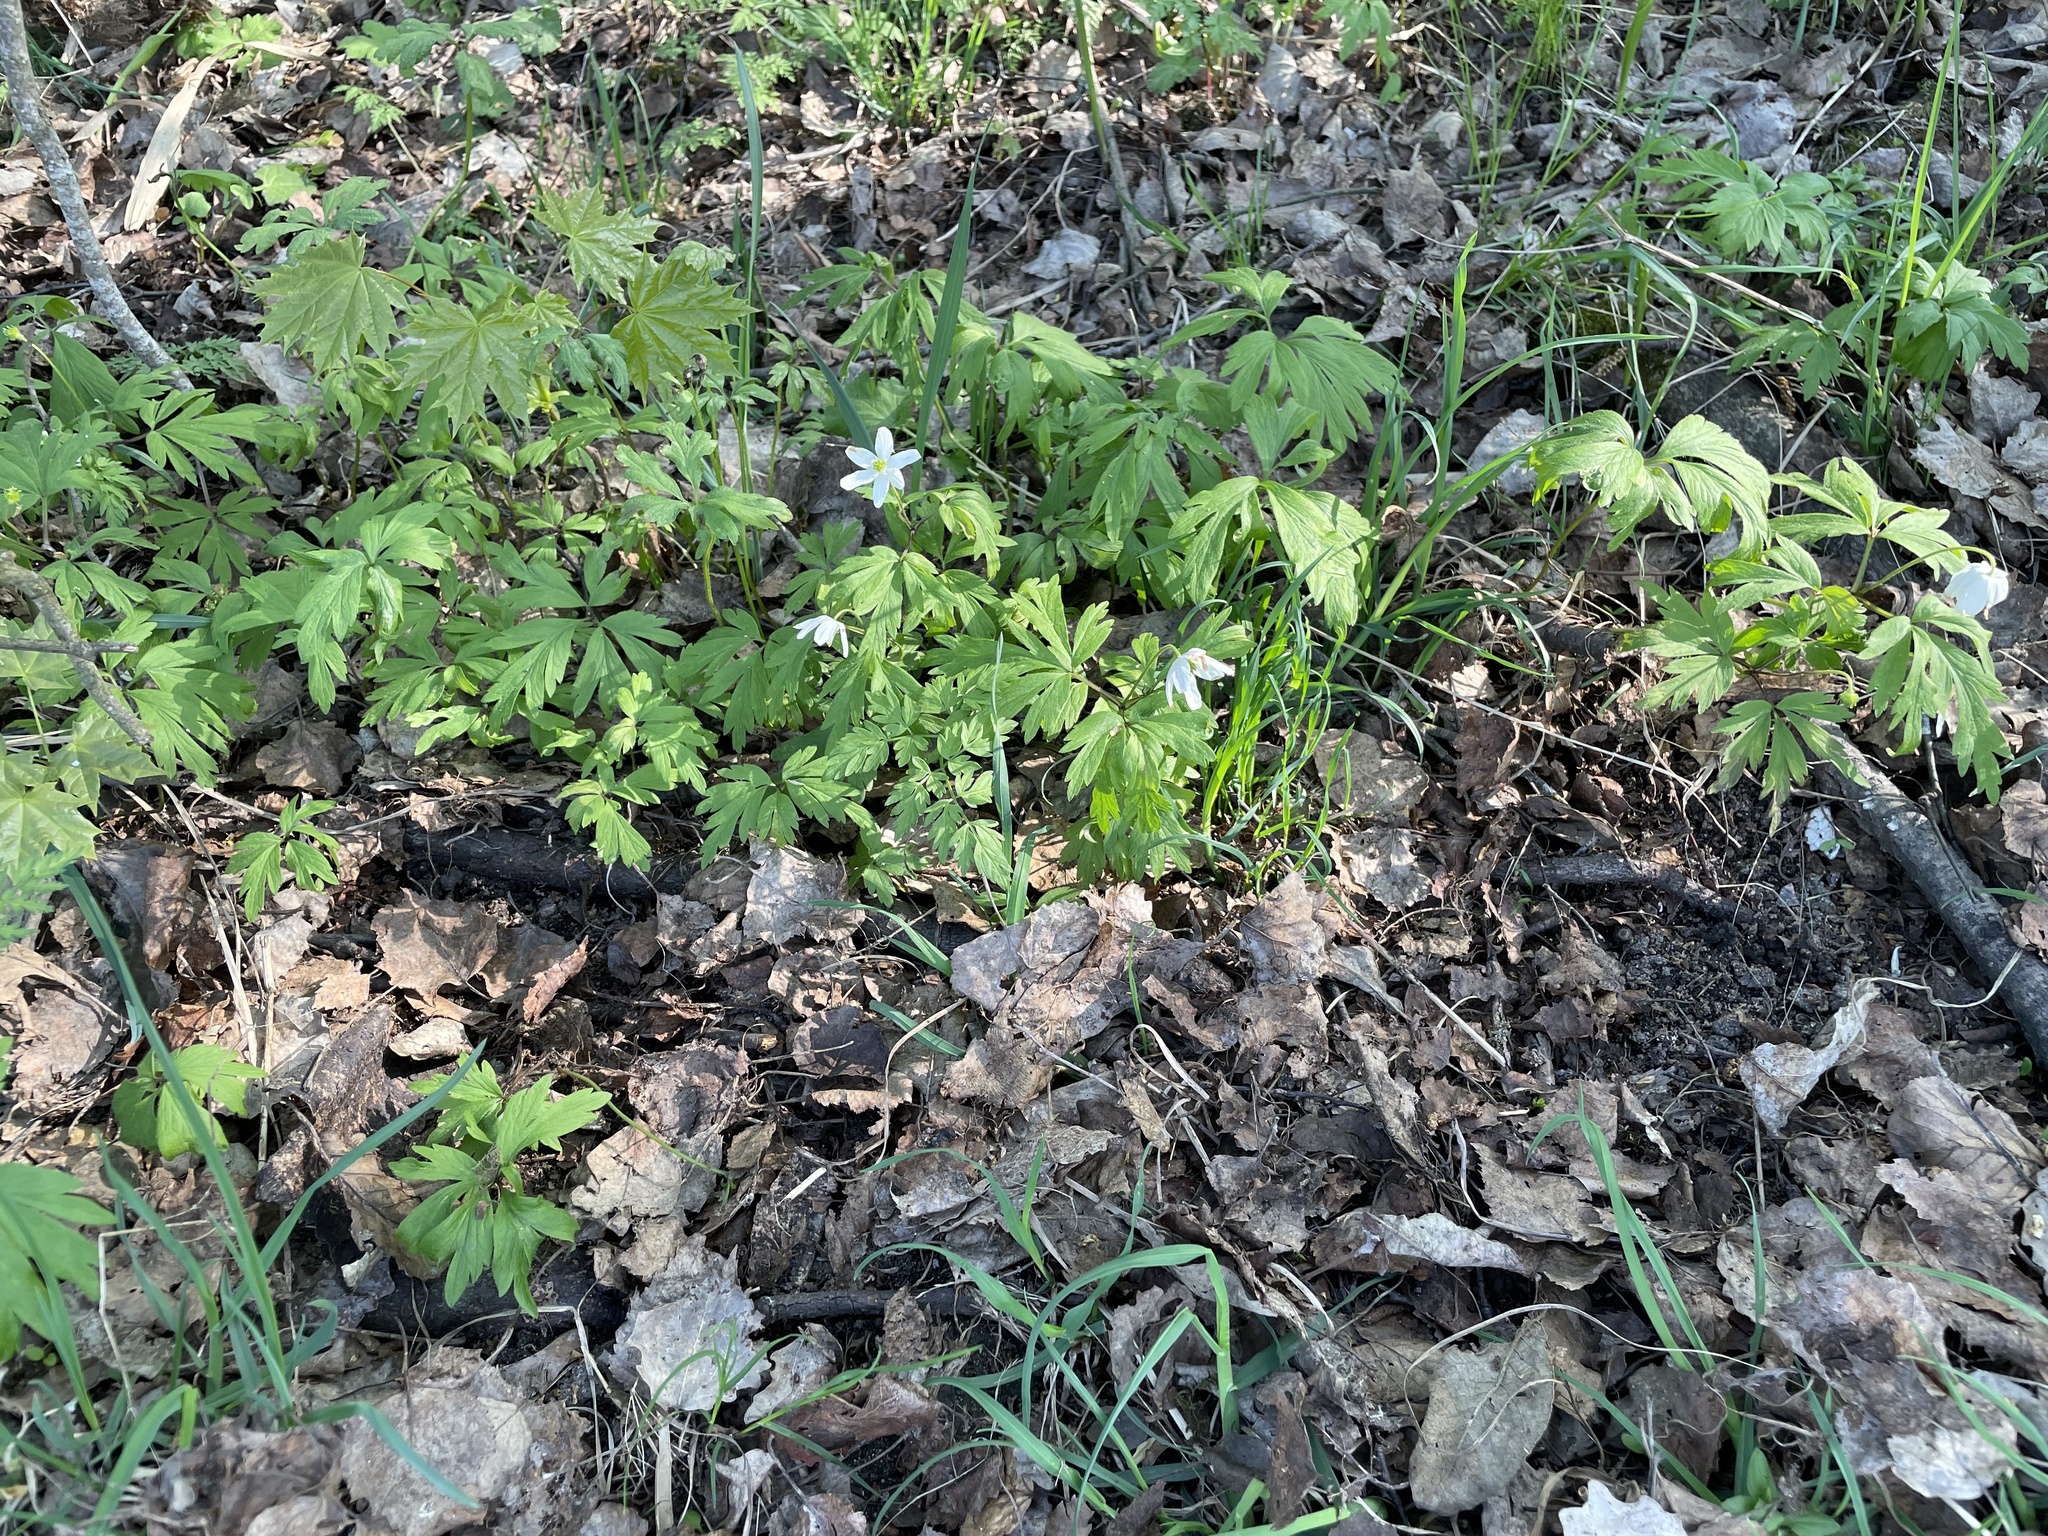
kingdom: Plantae
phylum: Tracheophyta
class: Magnoliopsida
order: Ranunculales
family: Ranunculaceae
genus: Anemone
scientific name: Anemone nemorosa
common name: Wood anemone
